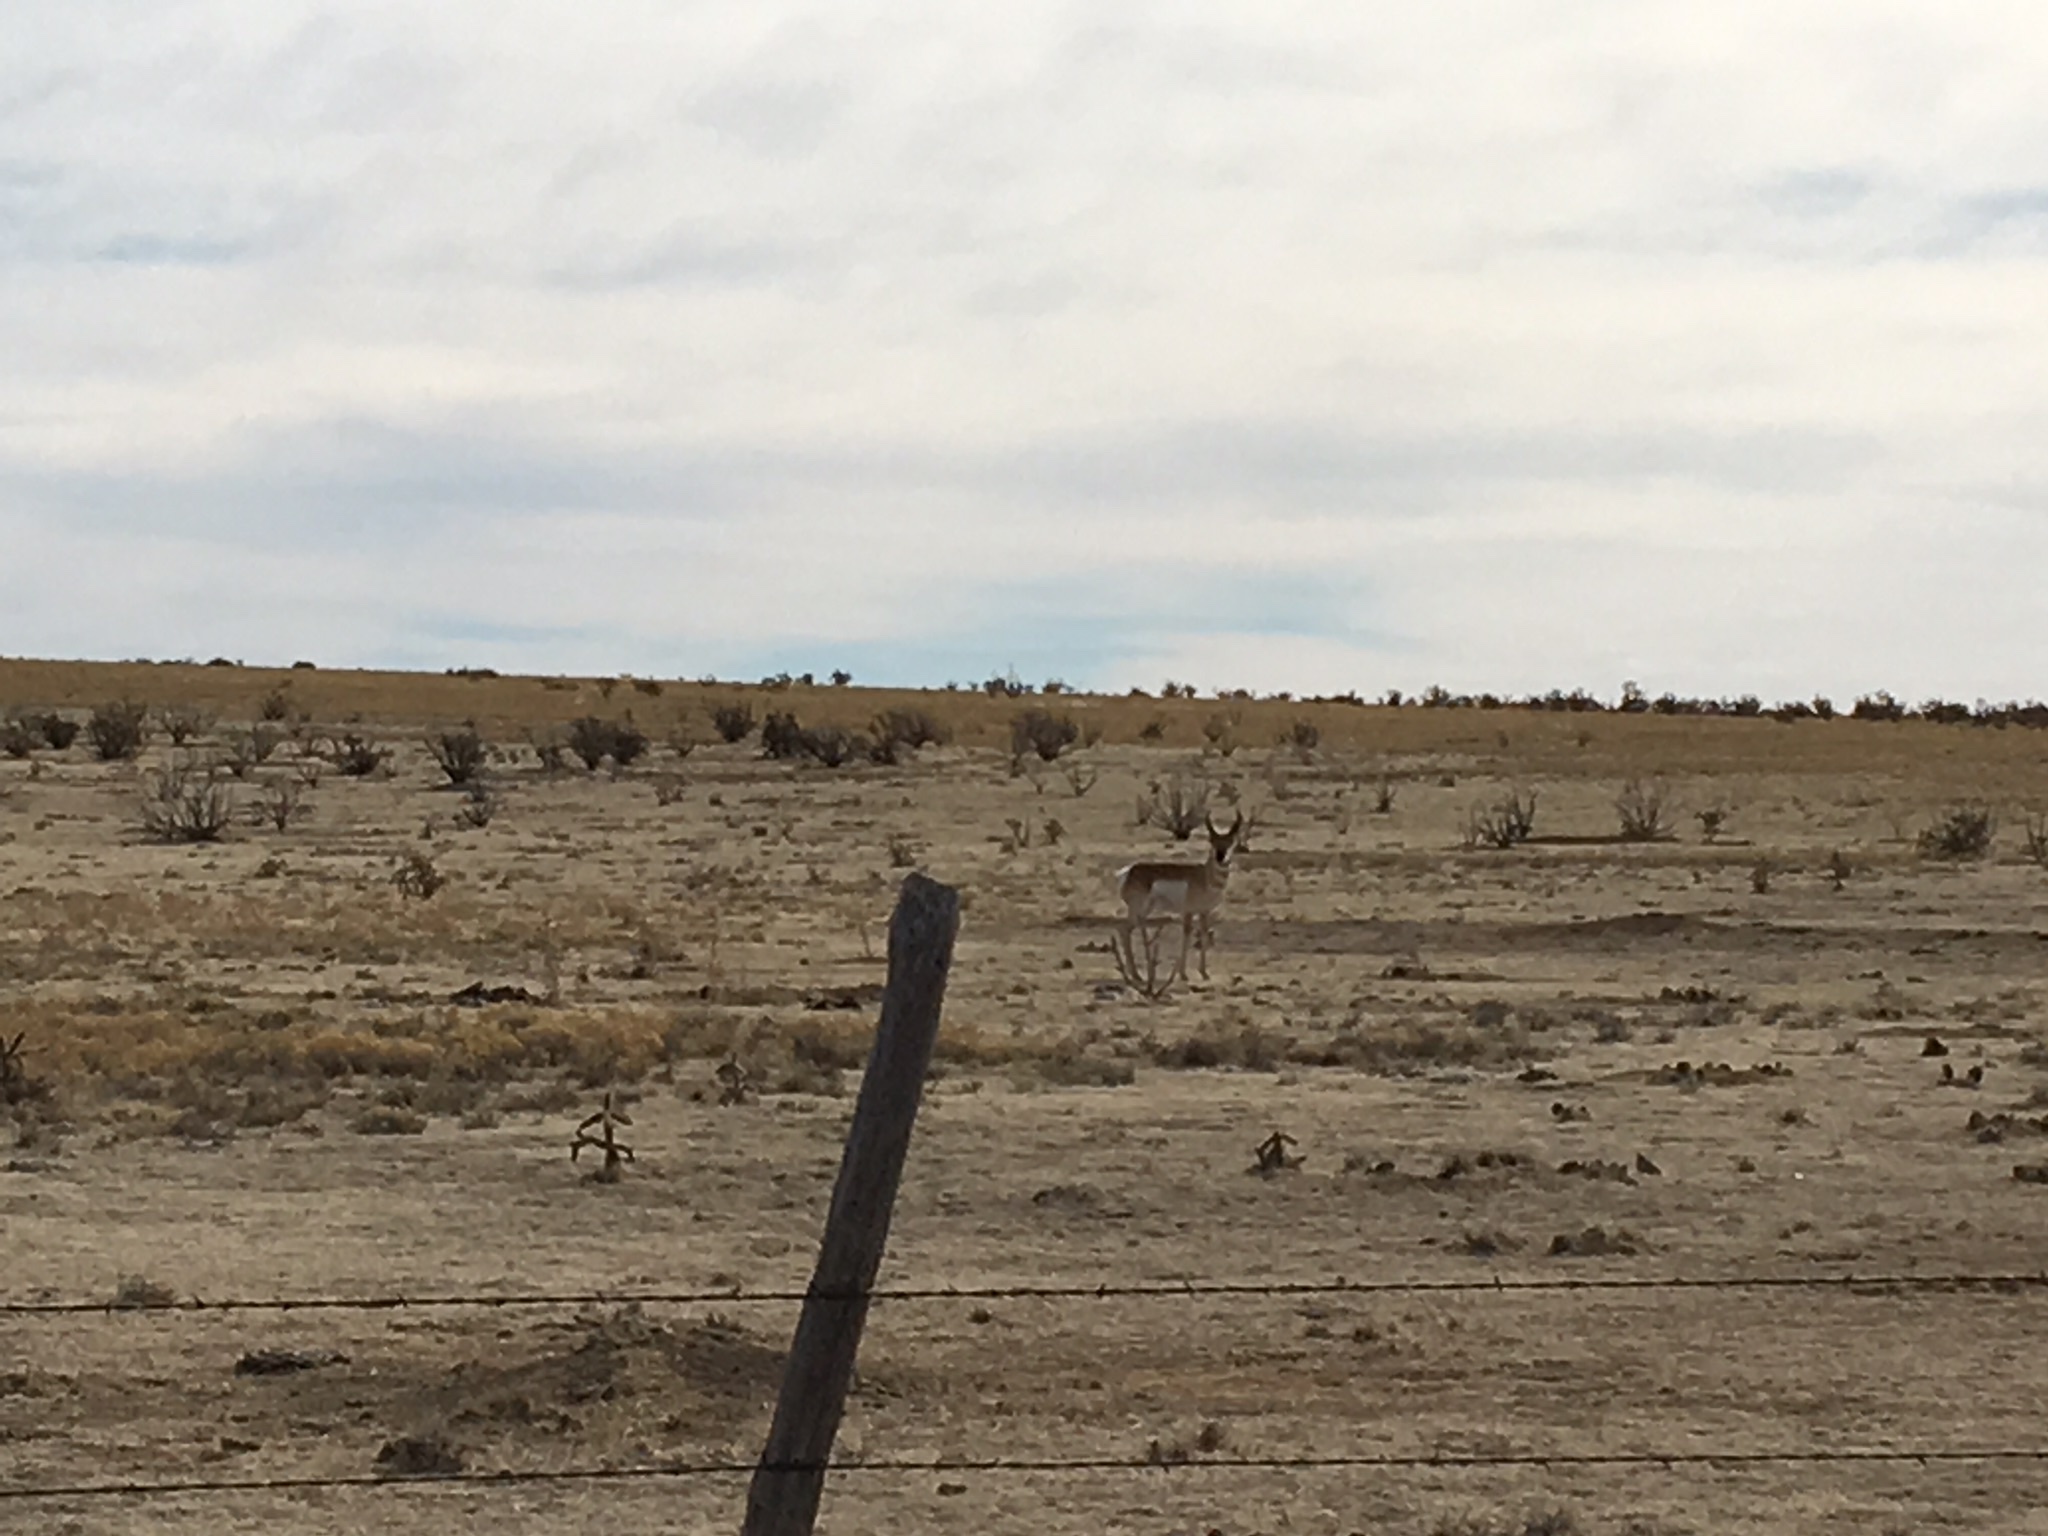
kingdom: Animalia
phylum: Chordata
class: Mammalia
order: Artiodactyla
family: Antilocapridae
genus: Antilocapra
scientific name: Antilocapra americana
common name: Pronghorn
